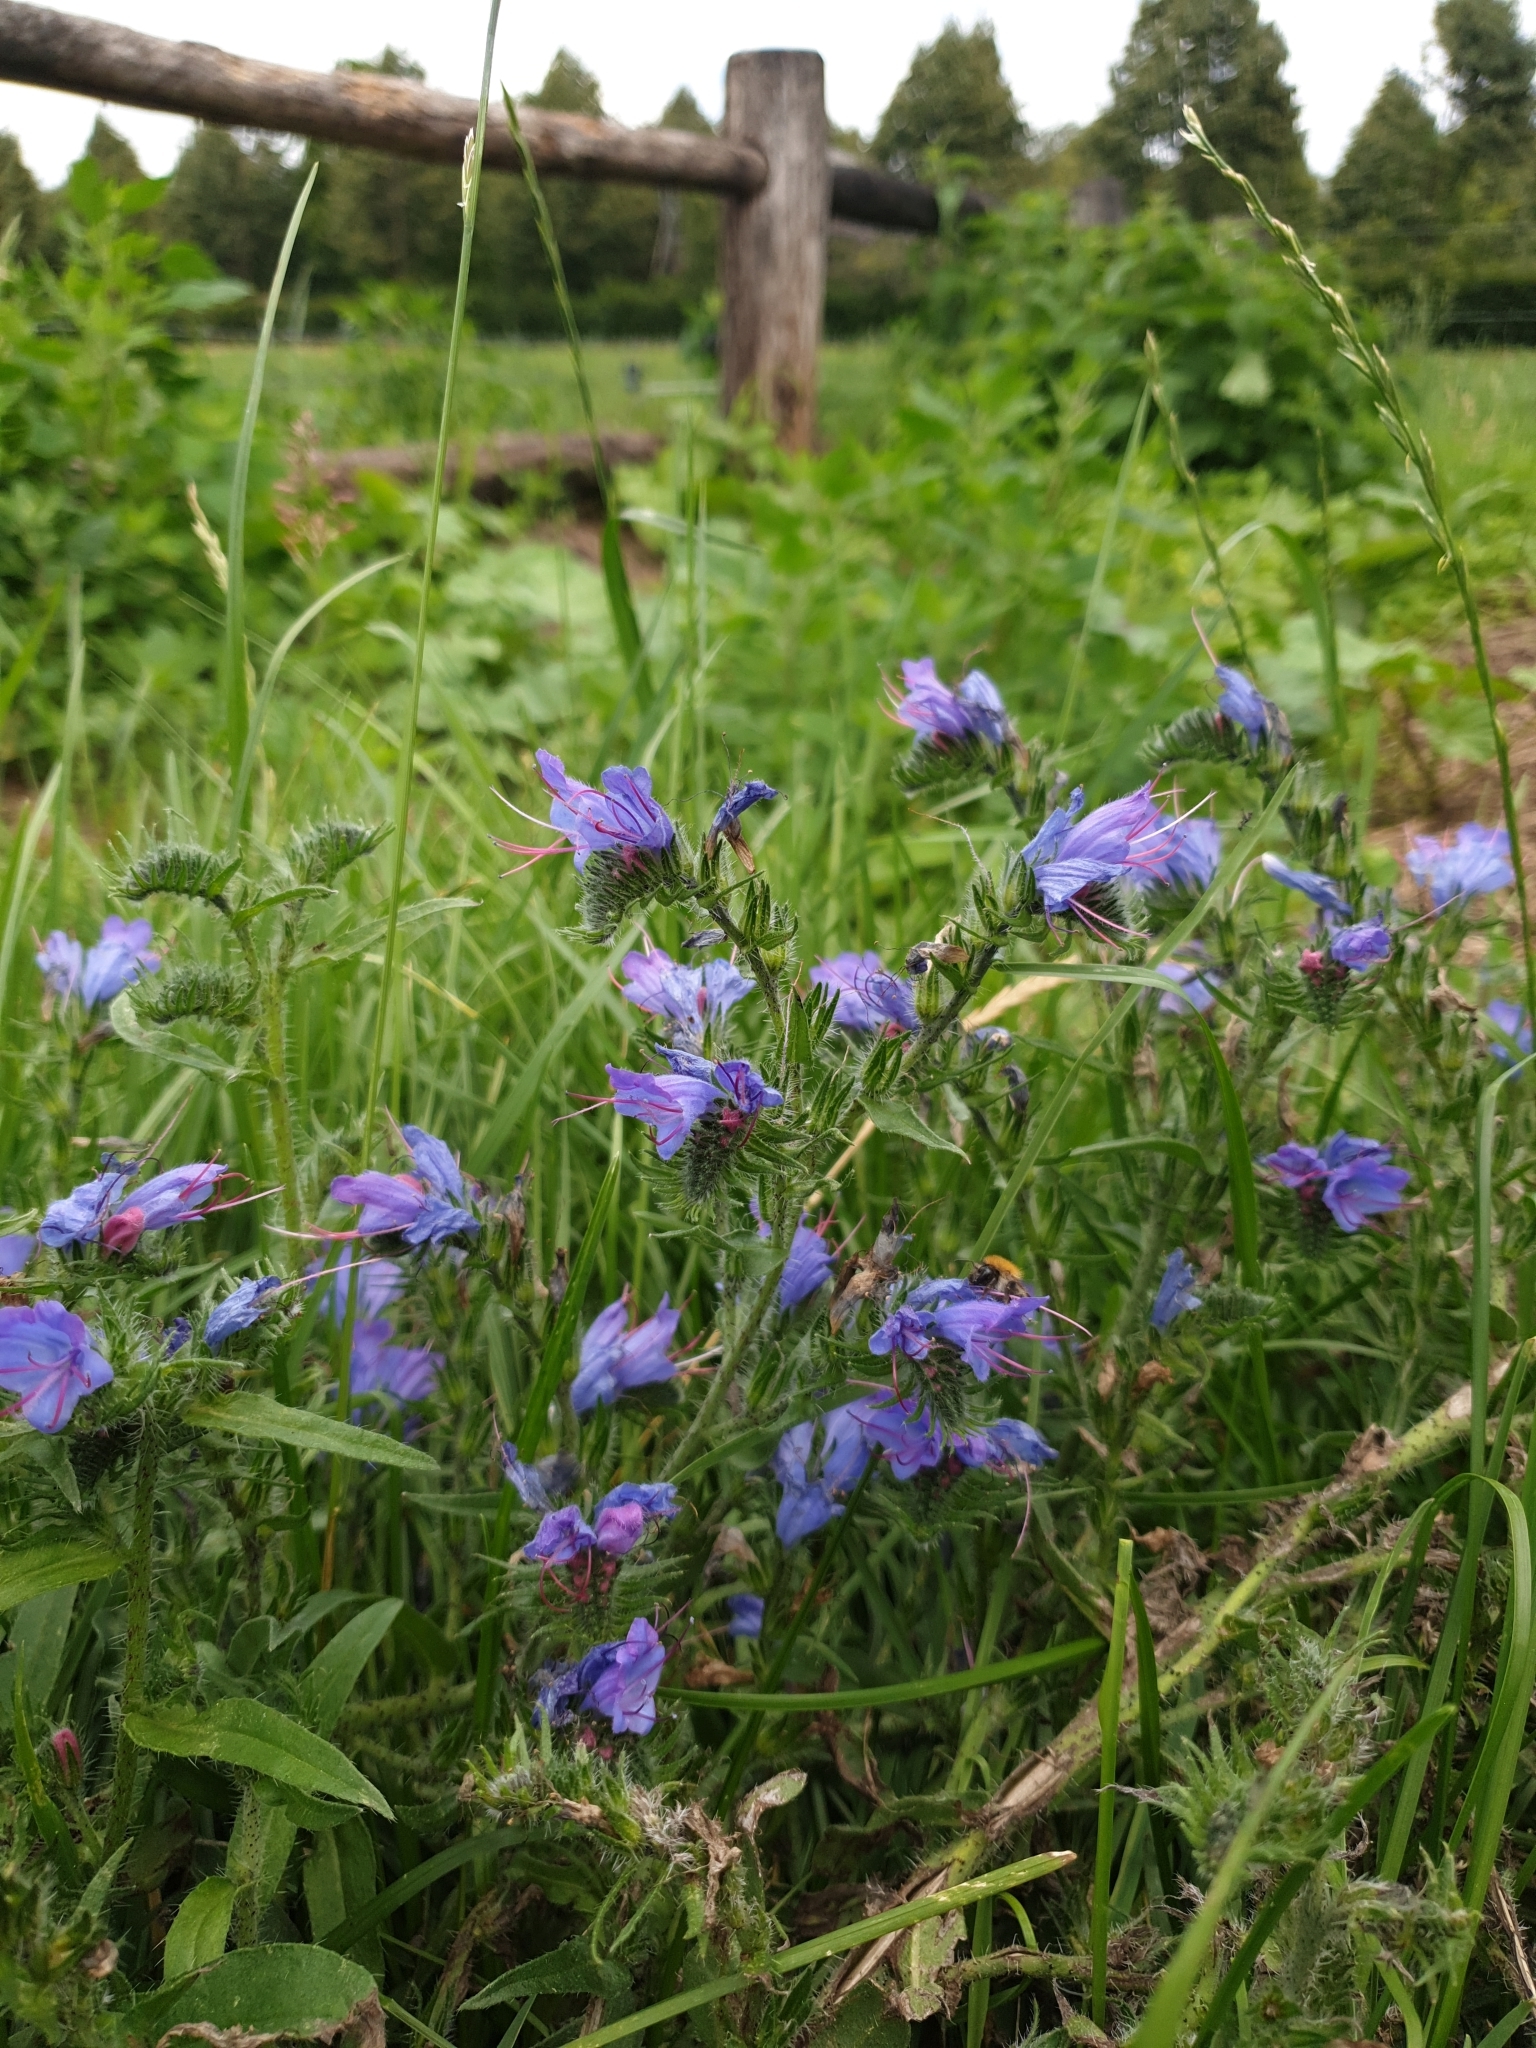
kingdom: Plantae
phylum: Tracheophyta
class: Magnoliopsida
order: Boraginales
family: Boraginaceae
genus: Echium
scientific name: Echium vulgare
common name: Common viper's bugloss
